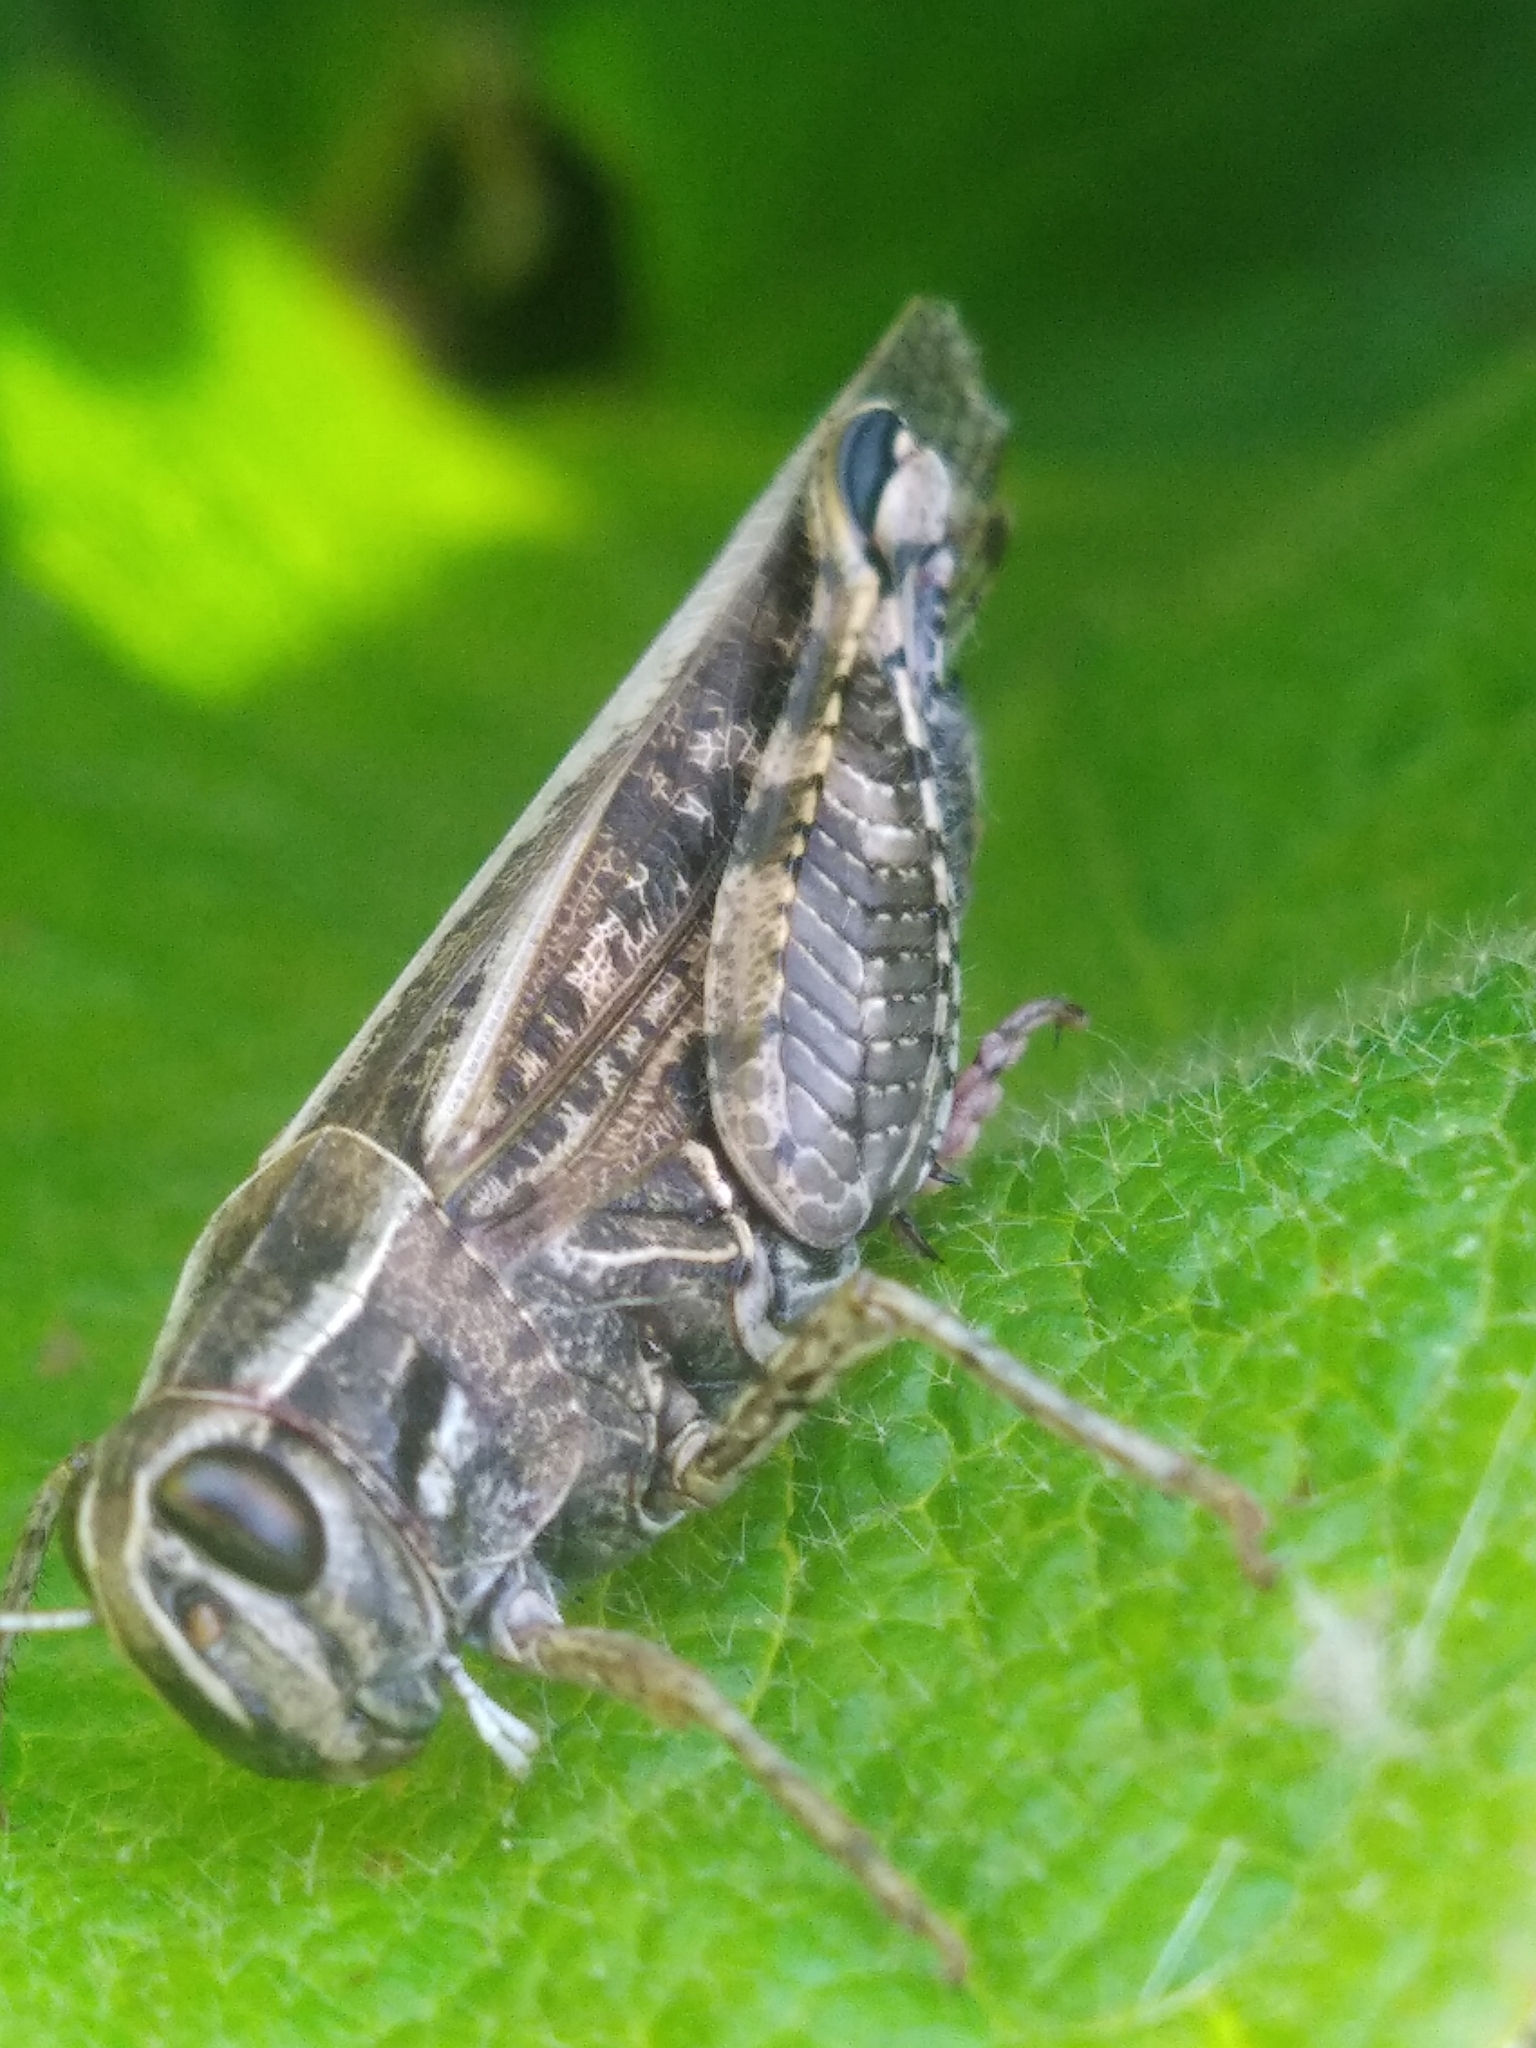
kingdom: Animalia
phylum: Arthropoda
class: Insecta
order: Orthoptera
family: Acrididae
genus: Calliptamus
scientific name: Calliptamus italicus
